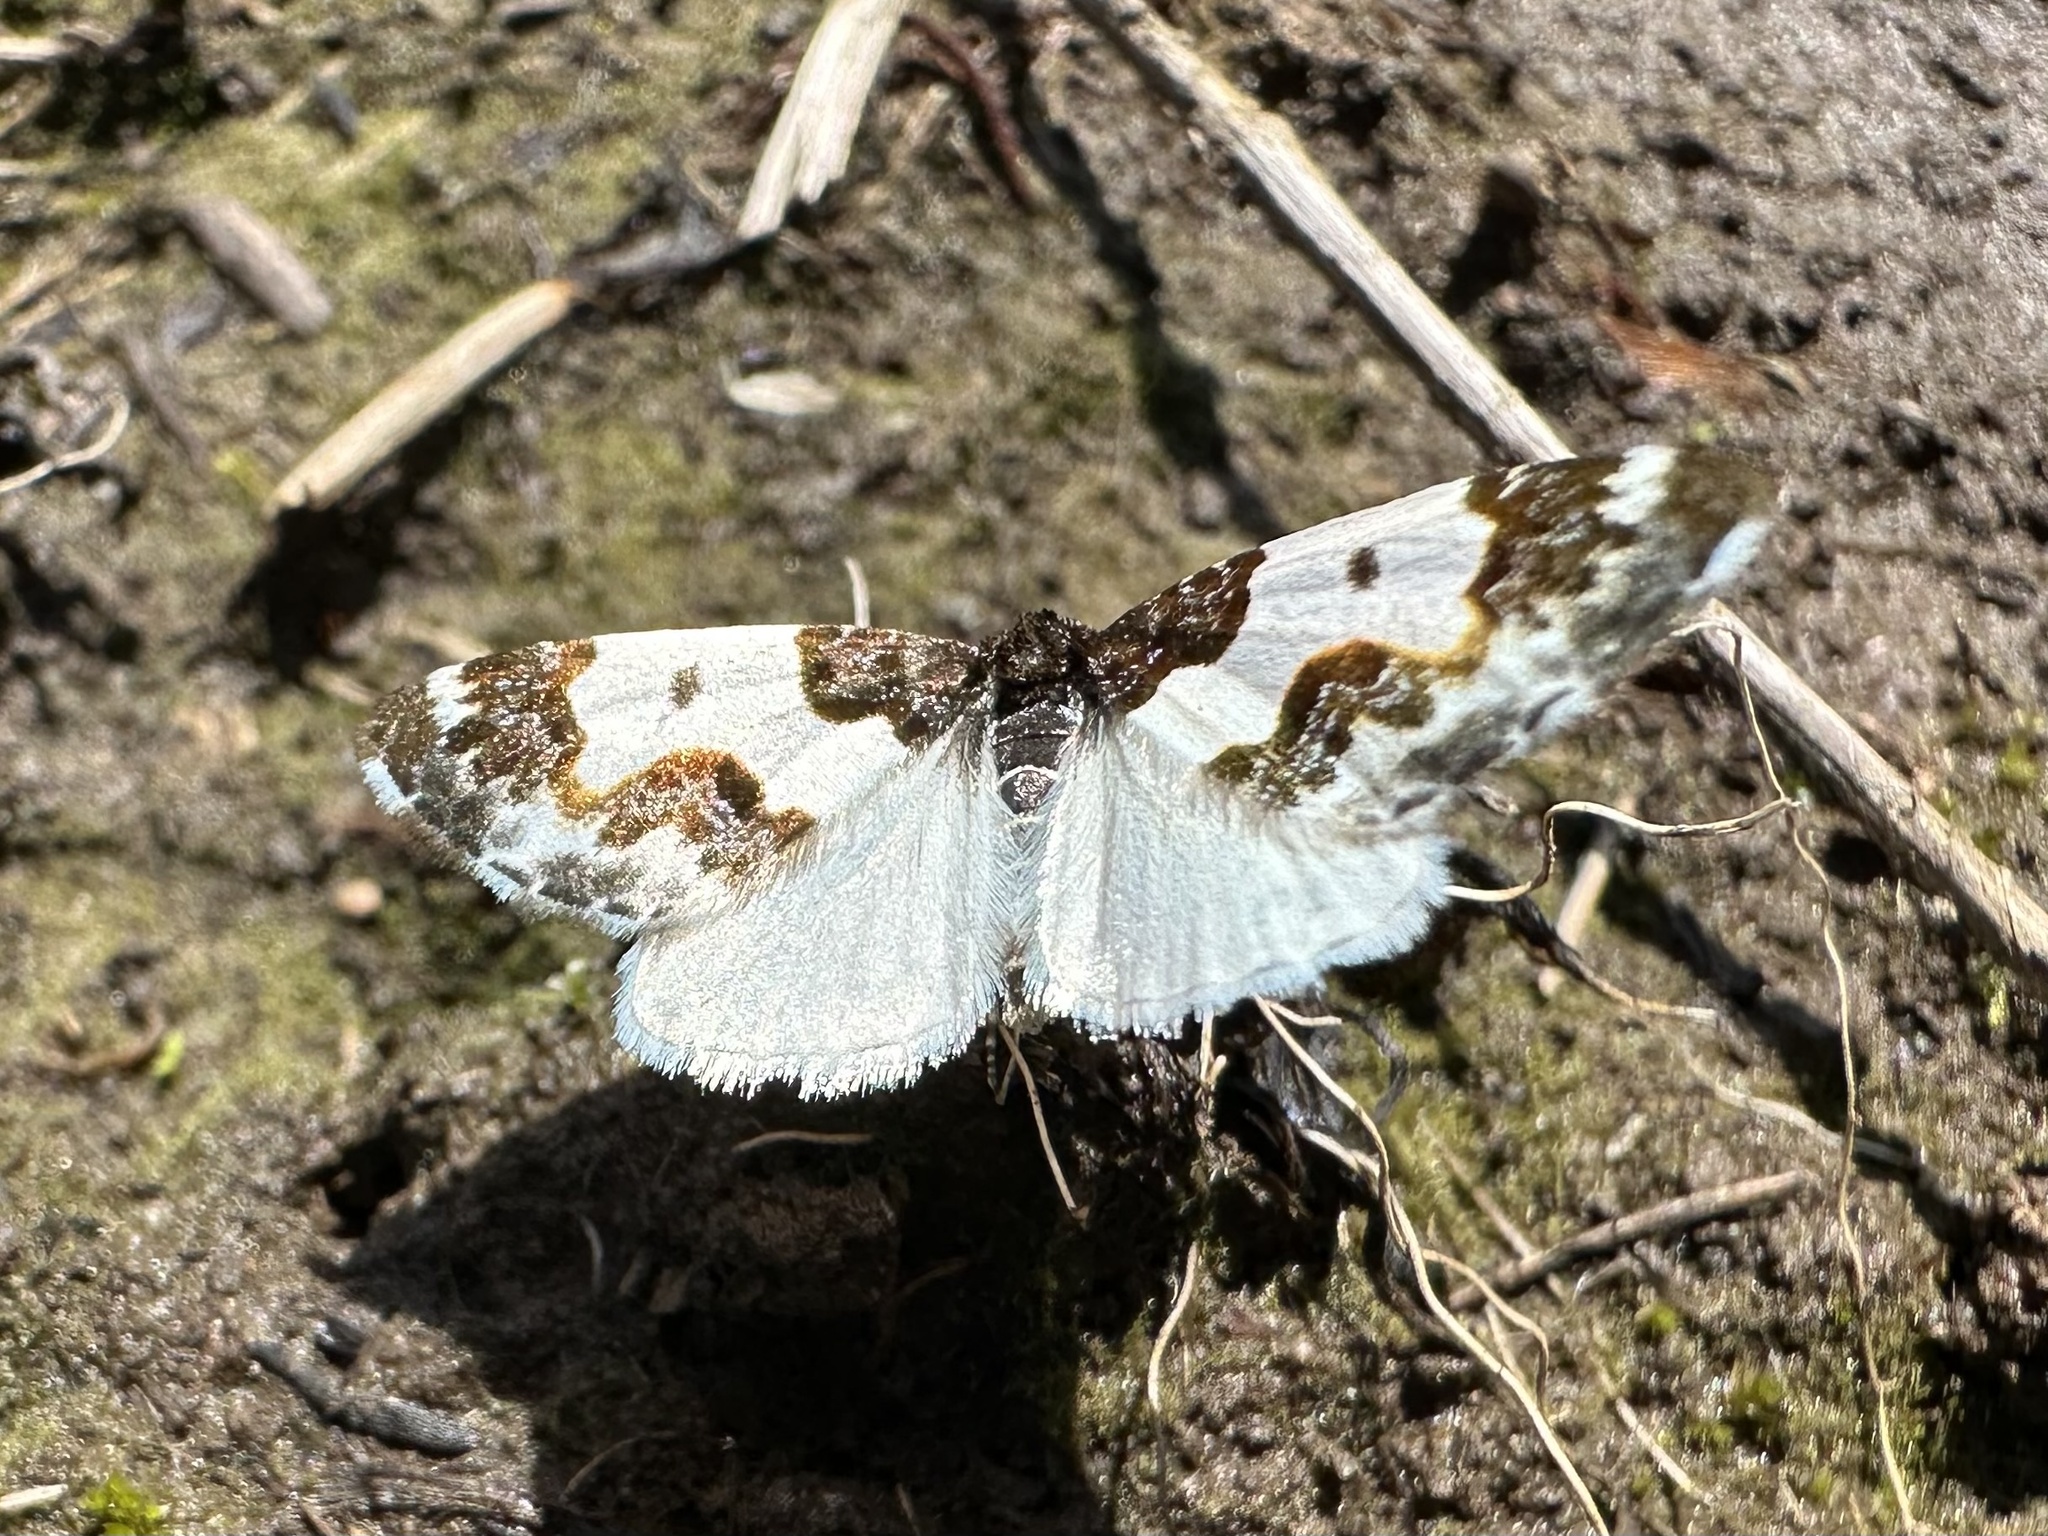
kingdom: Animalia
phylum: Arthropoda
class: Insecta
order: Lepidoptera
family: Geometridae
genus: Mesoleuca
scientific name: Mesoleuca gratulata
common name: Half-white carpet moth
